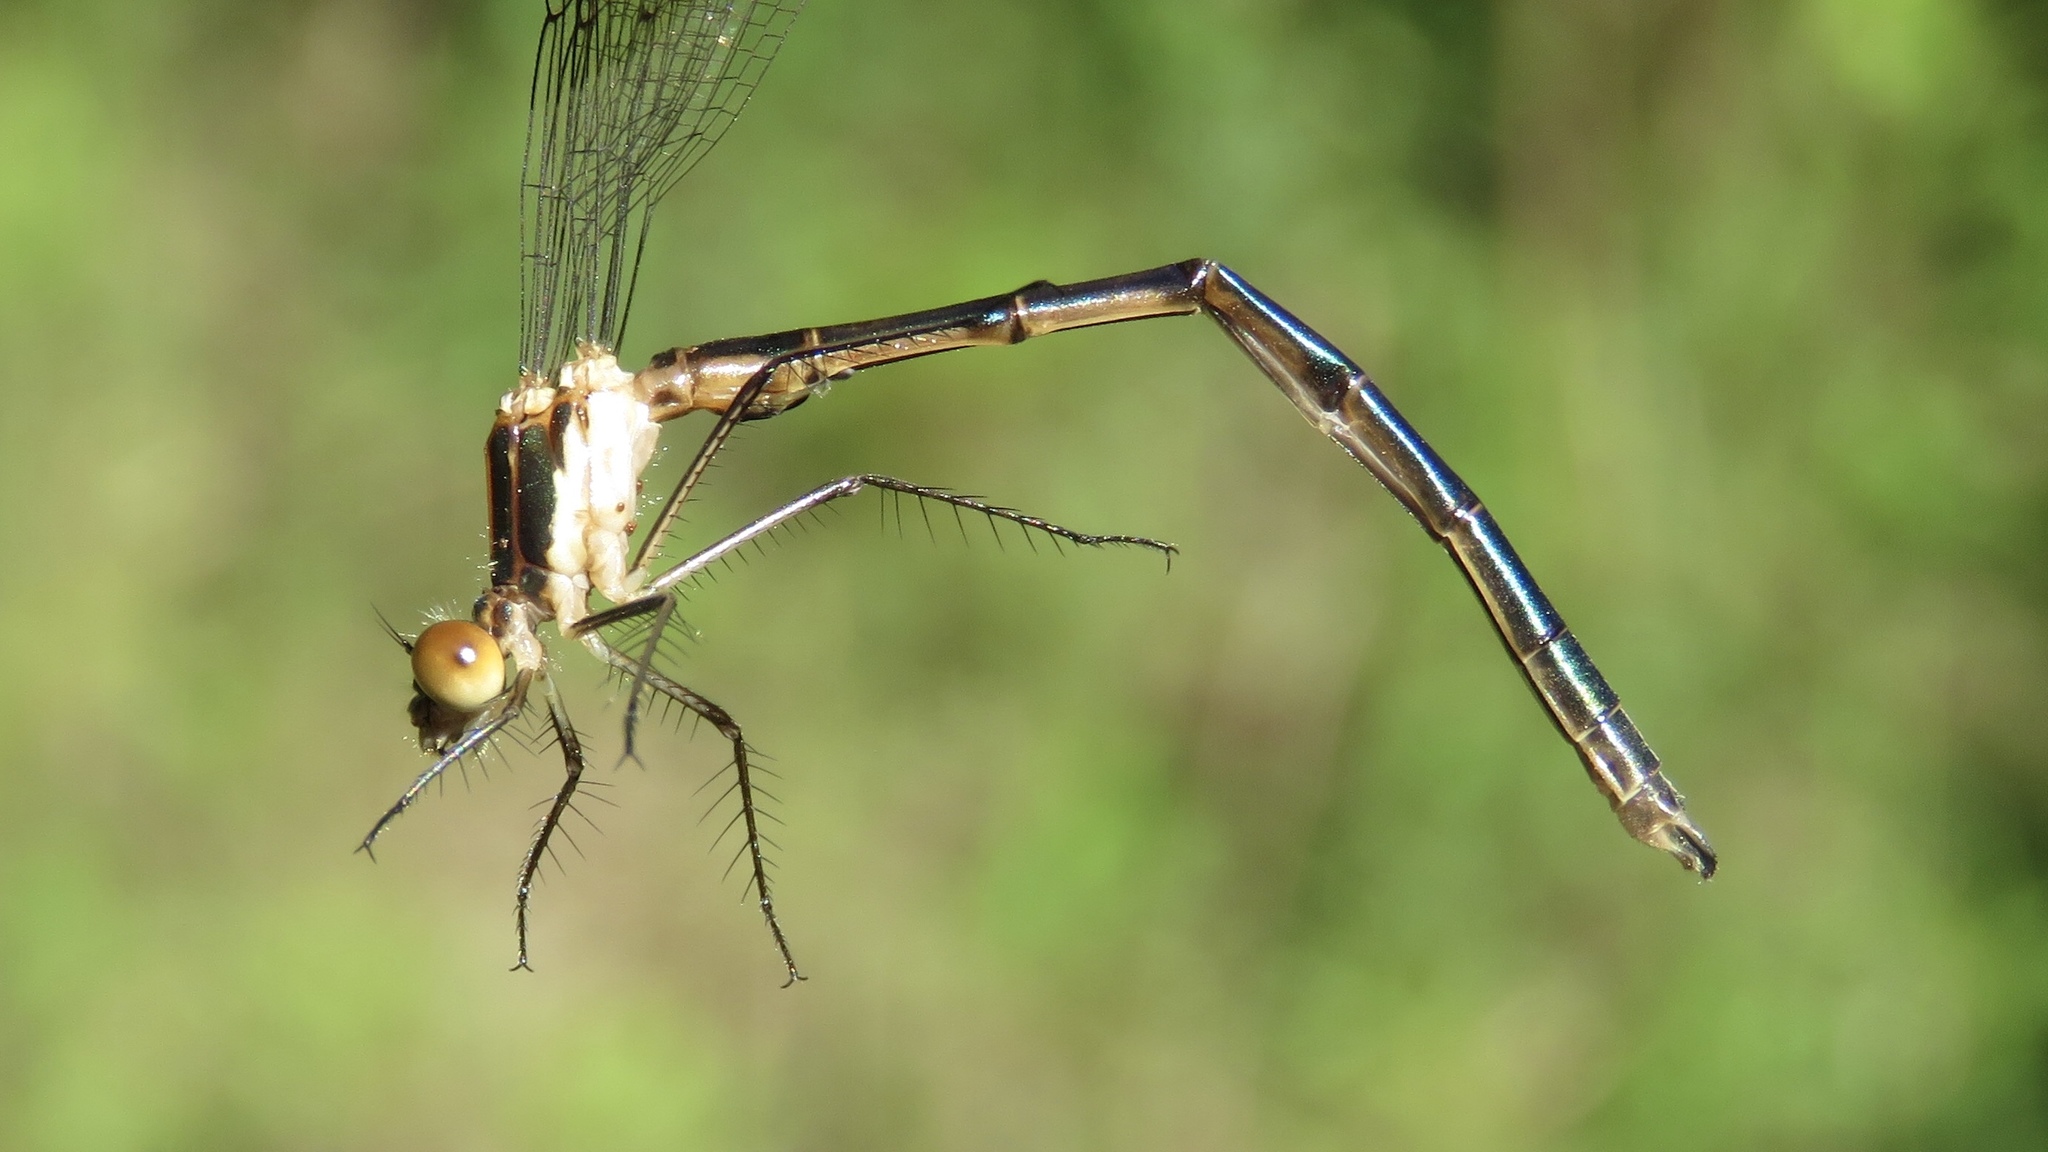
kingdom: Animalia
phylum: Arthropoda
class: Insecta
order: Odonata
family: Lestidae
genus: Lestes
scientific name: Lestes dryas
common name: Scarce emerald damselfly
